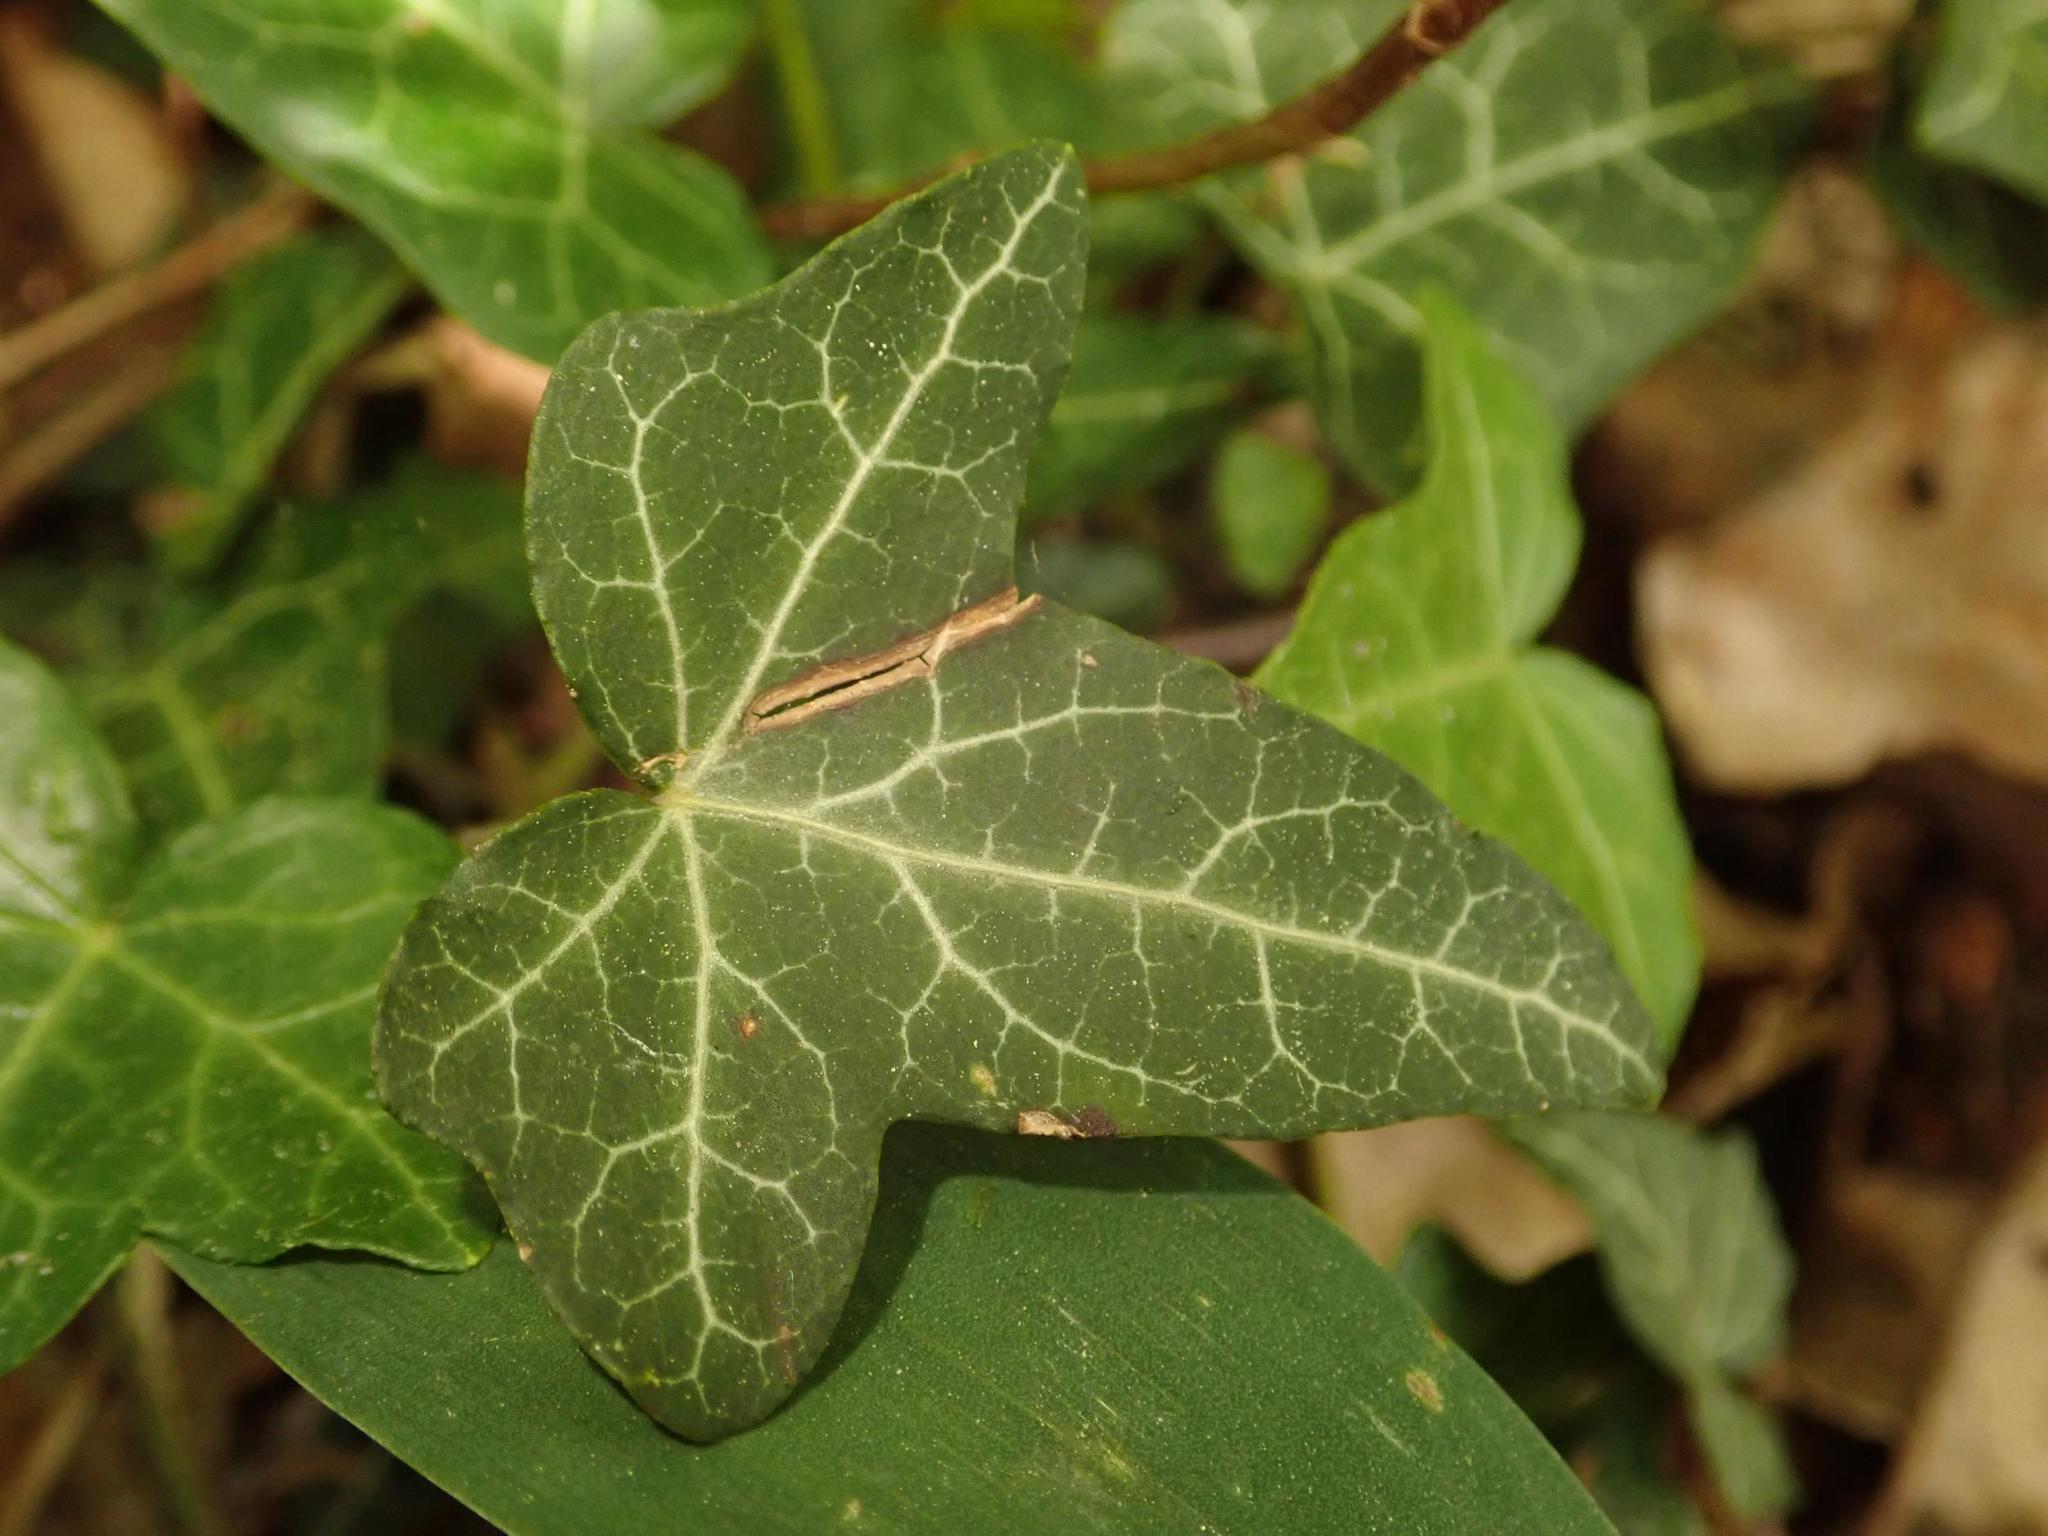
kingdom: Plantae
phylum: Tracheophyta
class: Magnoliopsida
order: Apiales
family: Araliaceae
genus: Hedera
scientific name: Hedera helix
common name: Ivy
